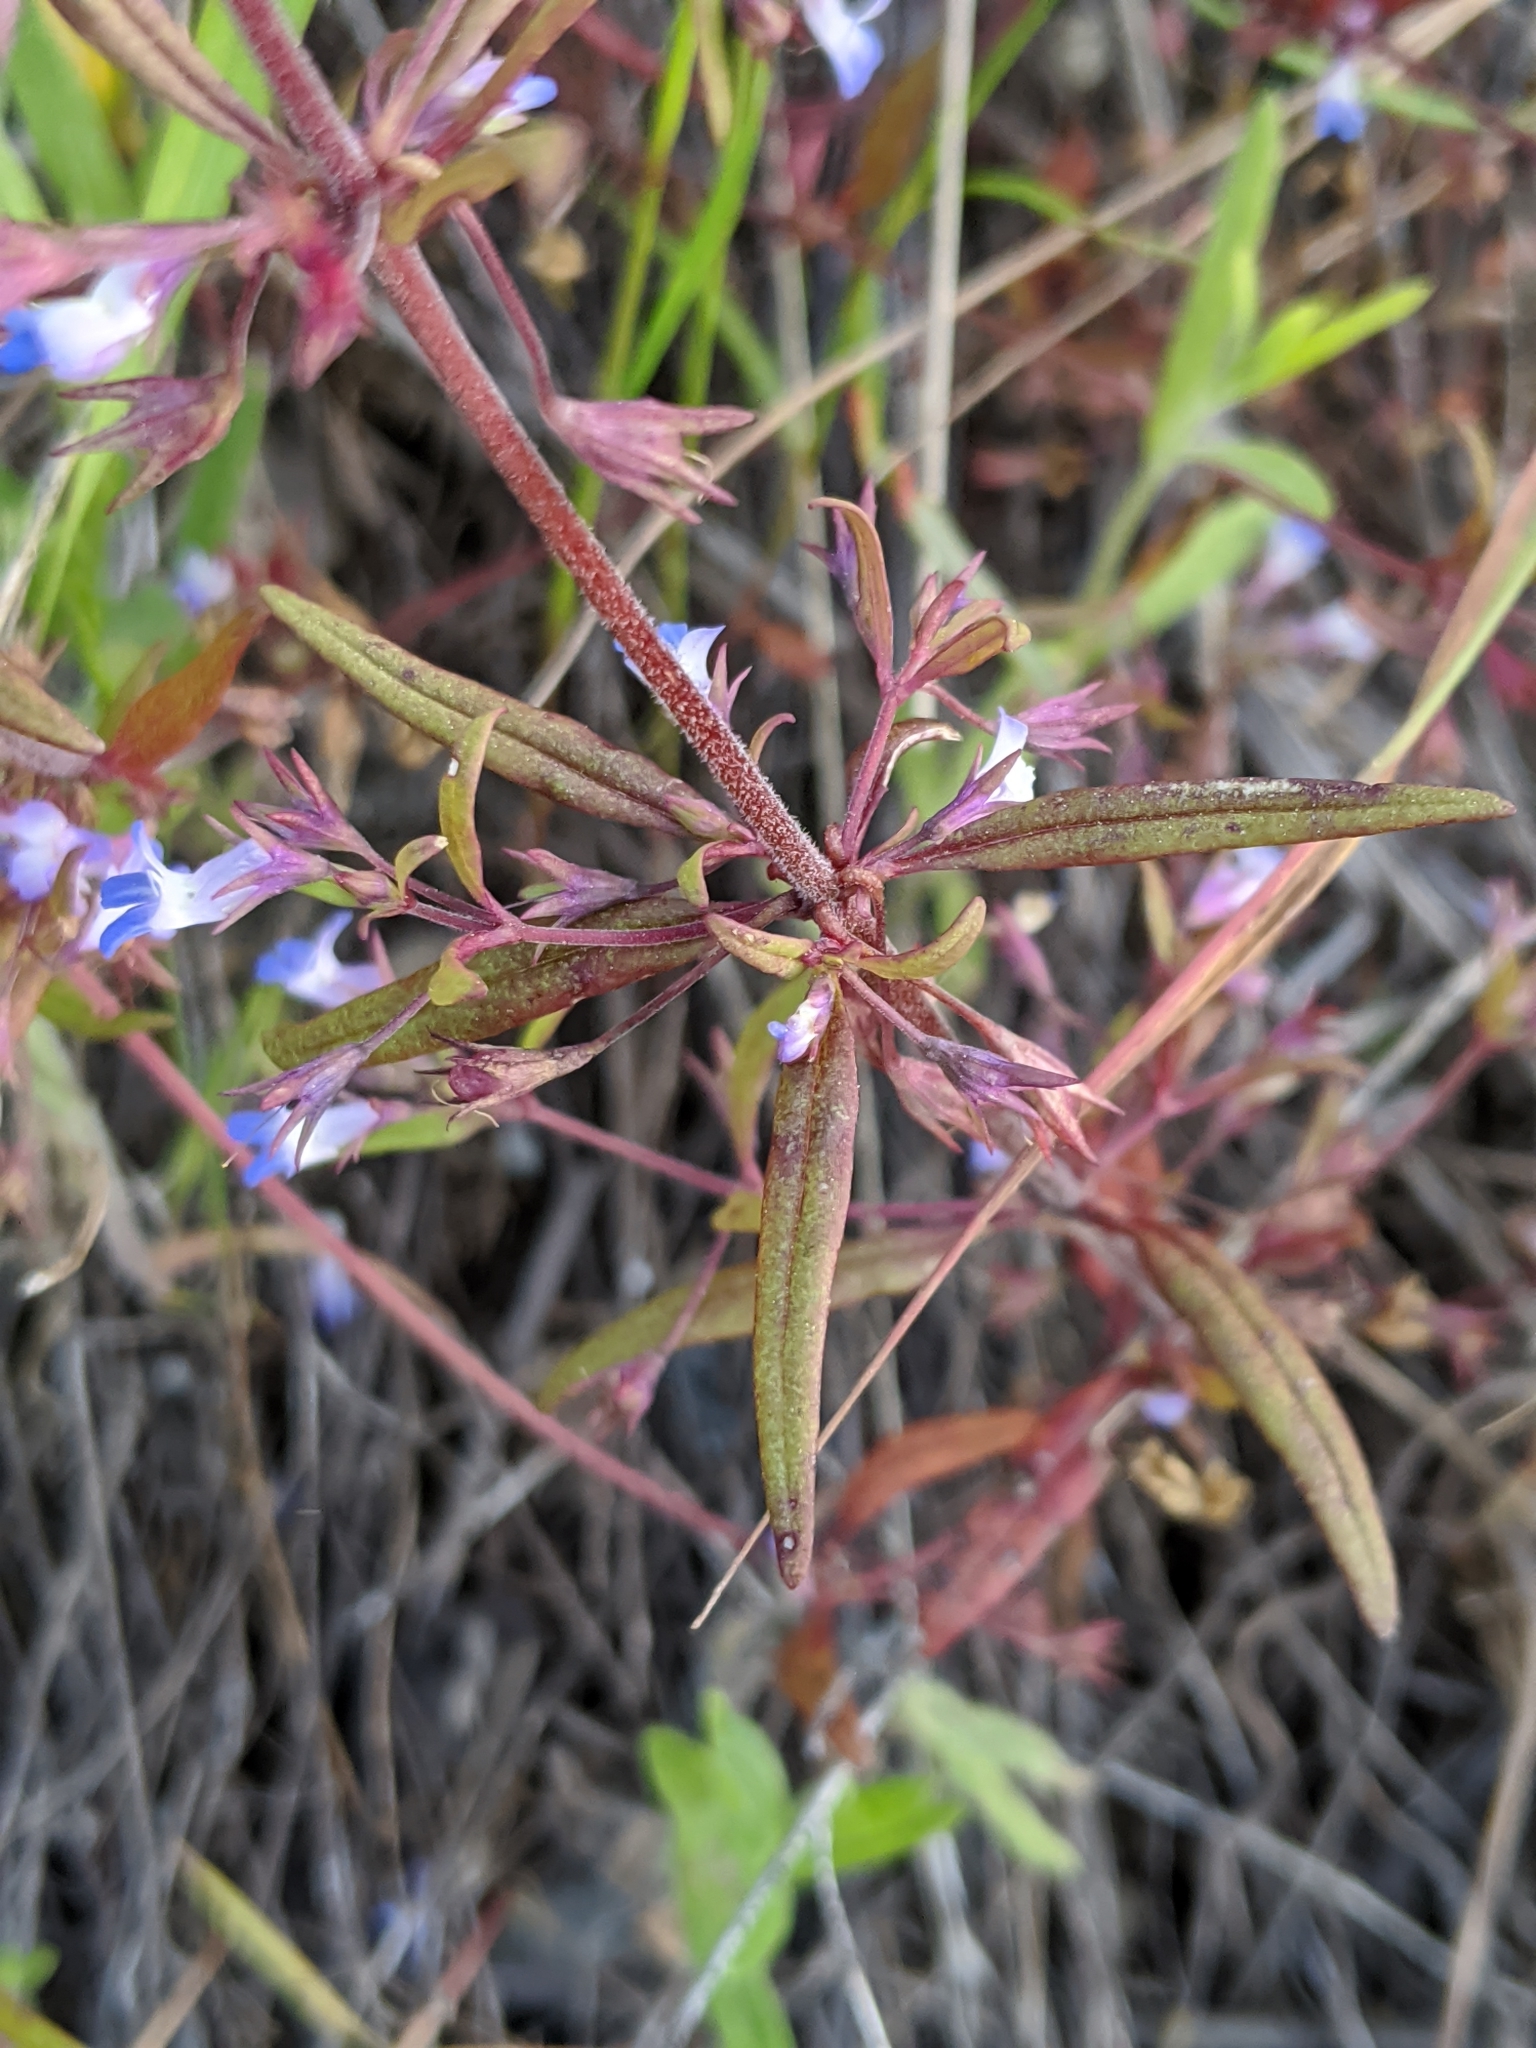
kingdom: Plantae
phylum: Tracheophyta
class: Magnoliopsida
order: Lamiales
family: Plantaginaceae
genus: Collinsia
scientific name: Collinsia parviflora
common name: Blue-lips
